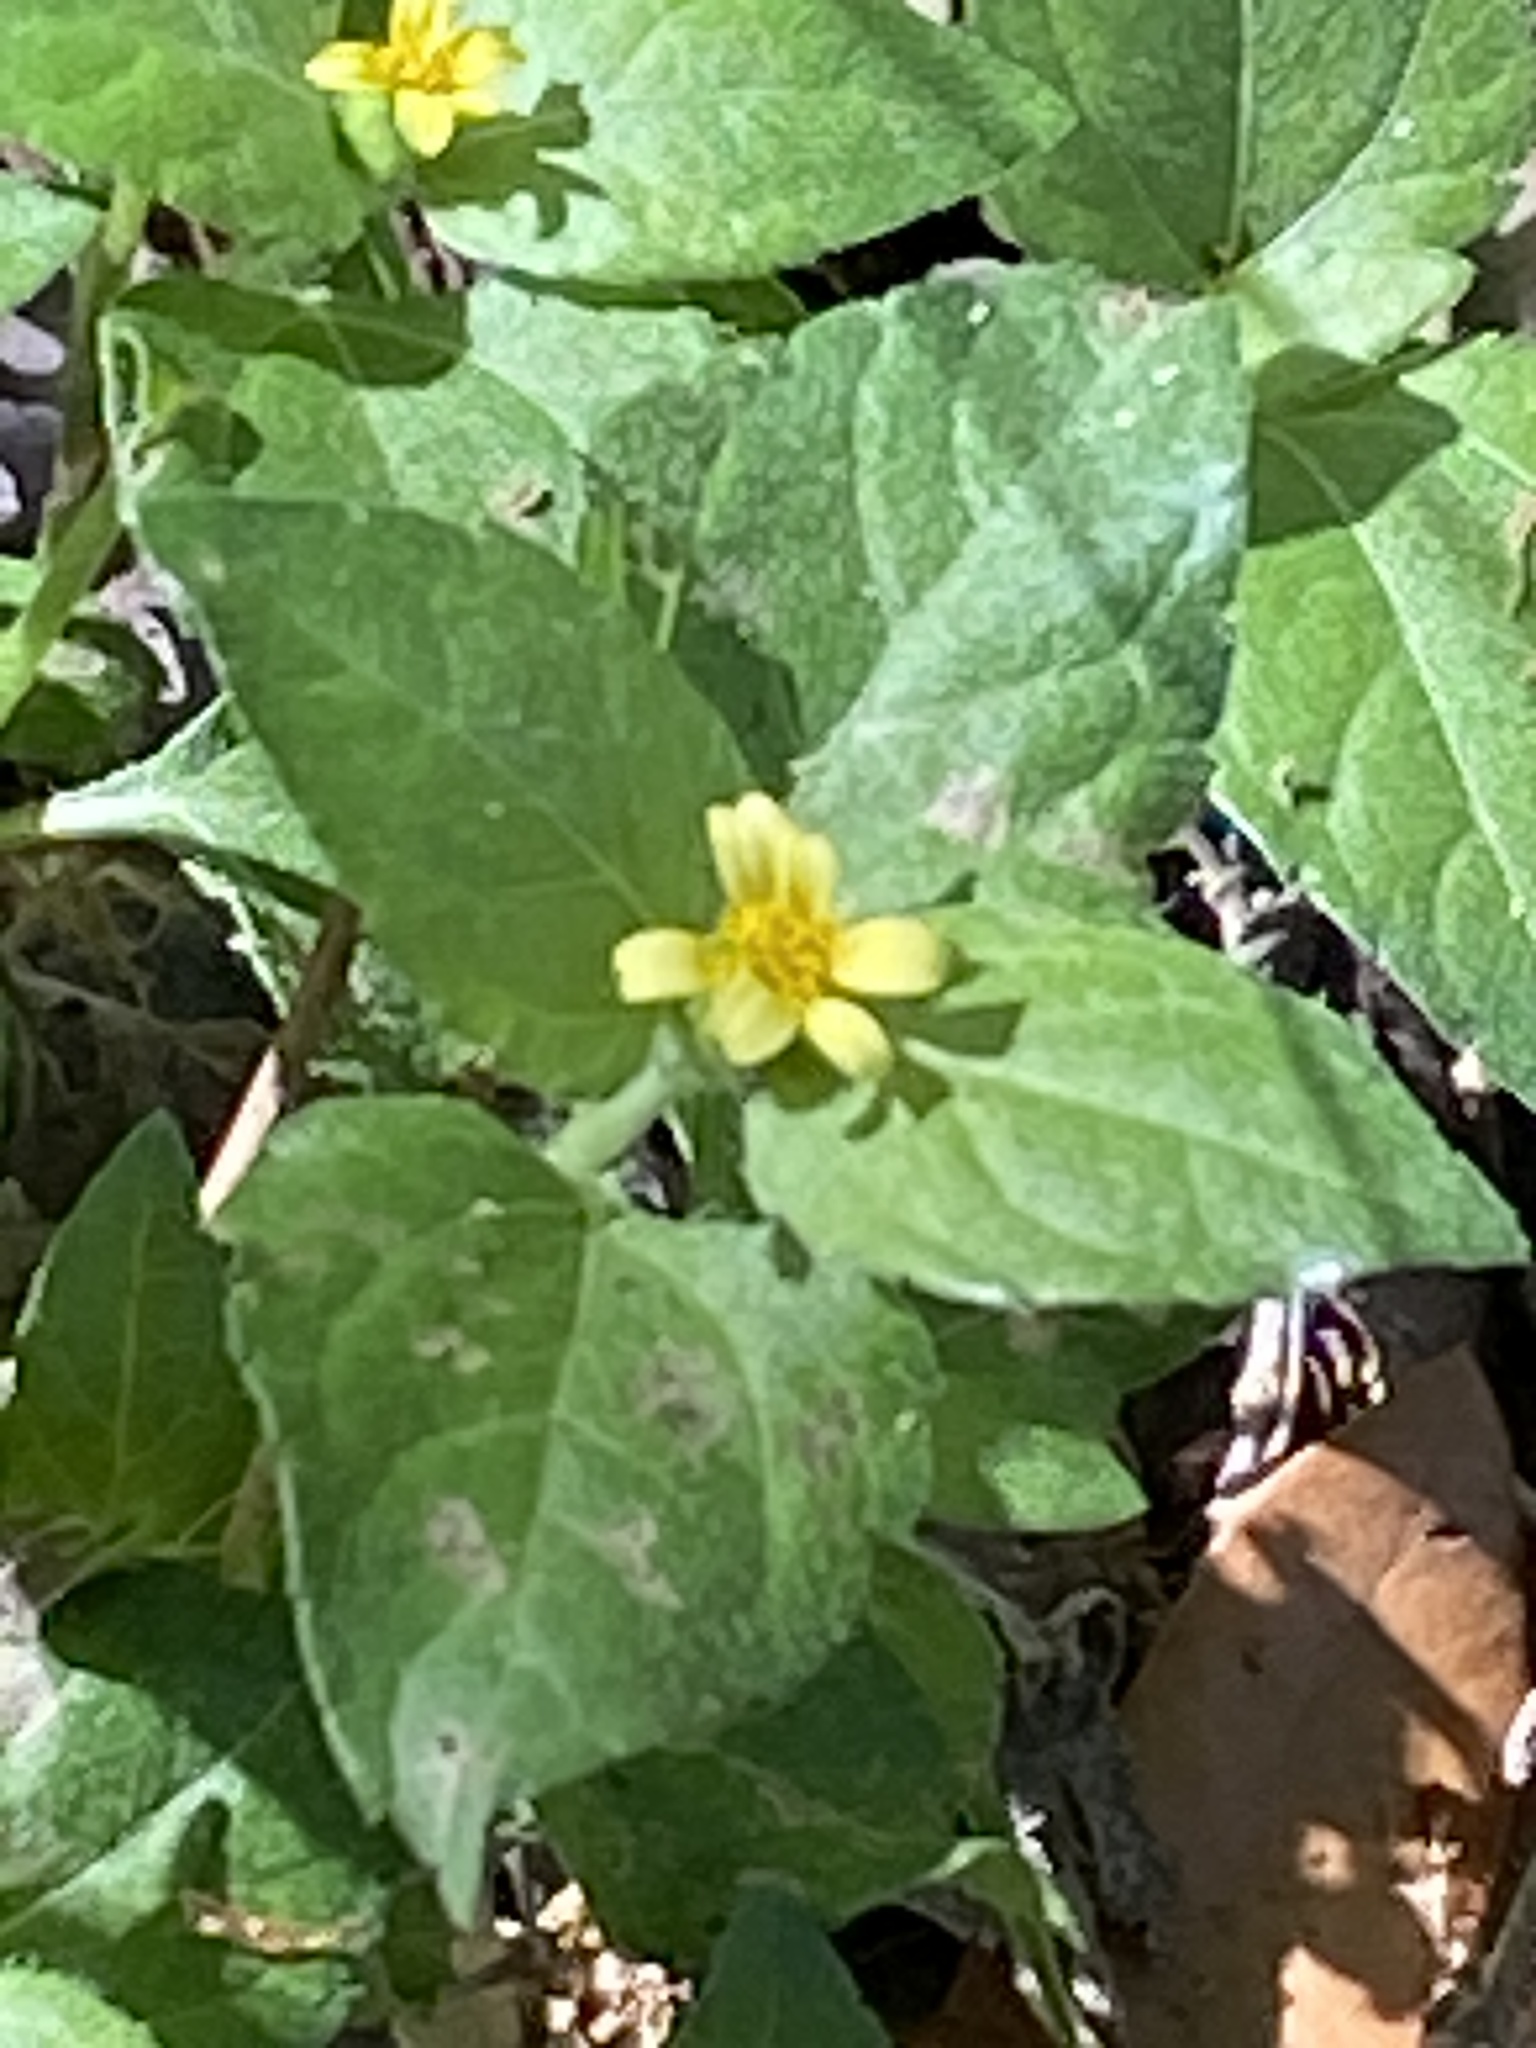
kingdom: Plantae
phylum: Tracheophyta
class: Magnoliopsida
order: Asterales
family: Asteraceae
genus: Calyptocarpus
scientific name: Calyptocarpus vialis
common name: Straggler daisy
